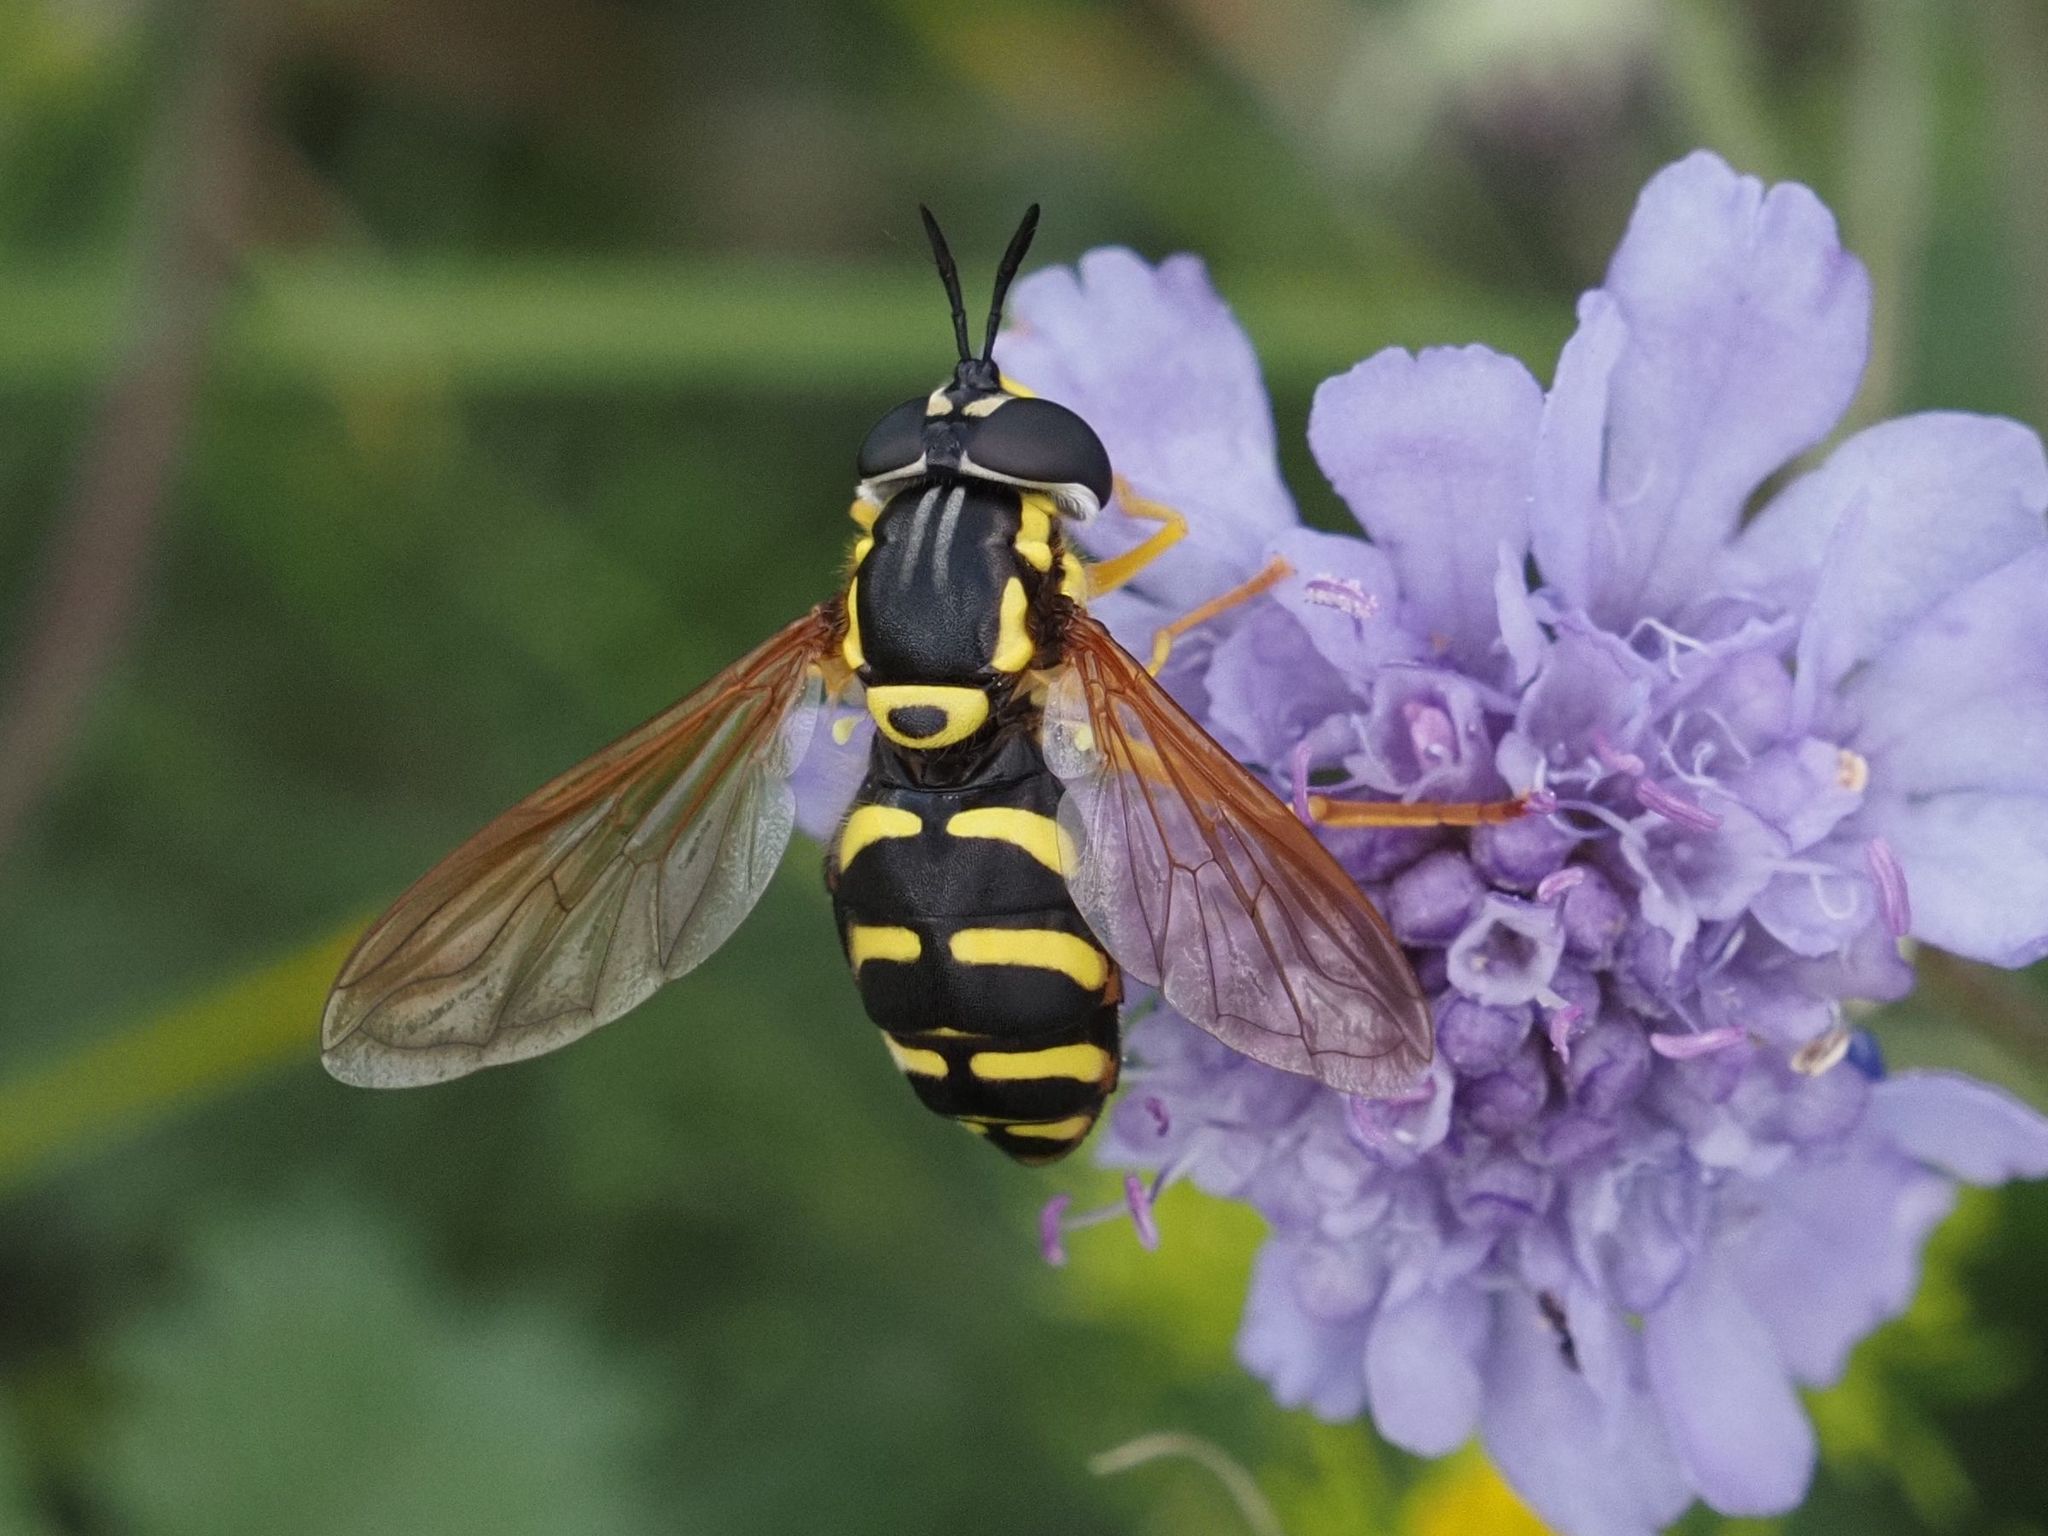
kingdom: Animalia
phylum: Arthropoda
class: Insecta
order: Diptera
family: Syrphidae
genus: Chrysotoxum
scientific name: Chrysotoxum elegans
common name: Zipperback
